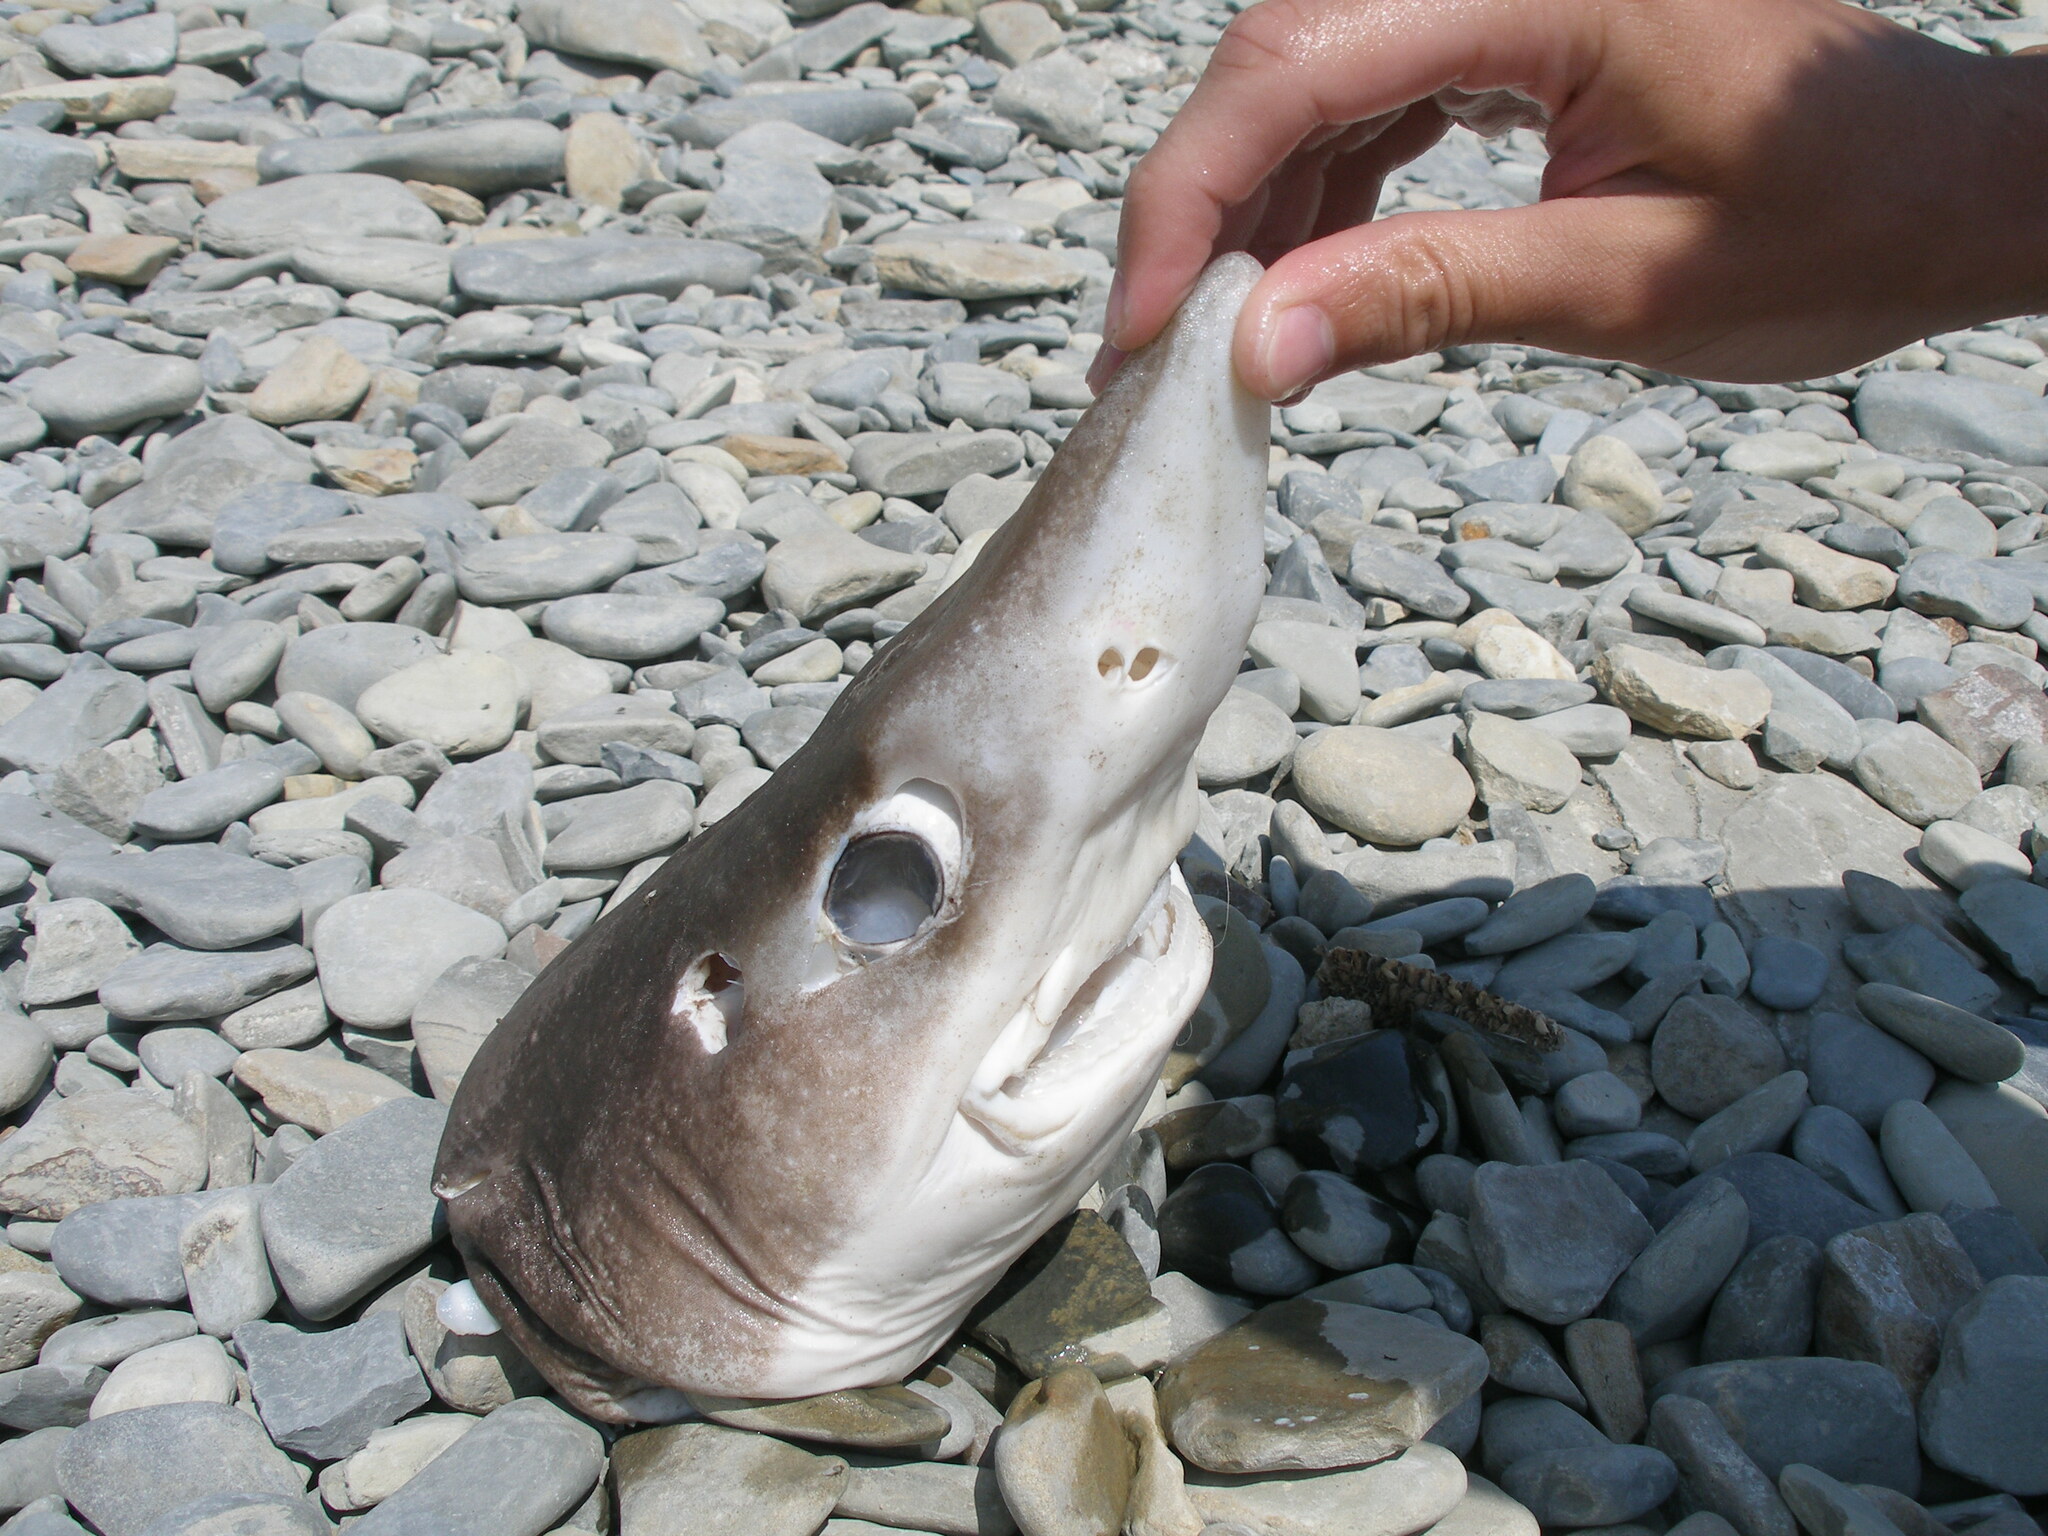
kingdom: Animalia
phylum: Chordata
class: Elasmobranchii
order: Squaliformes
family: Squalidae
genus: Squalus
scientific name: Squalus acanthias
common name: Spurdog
